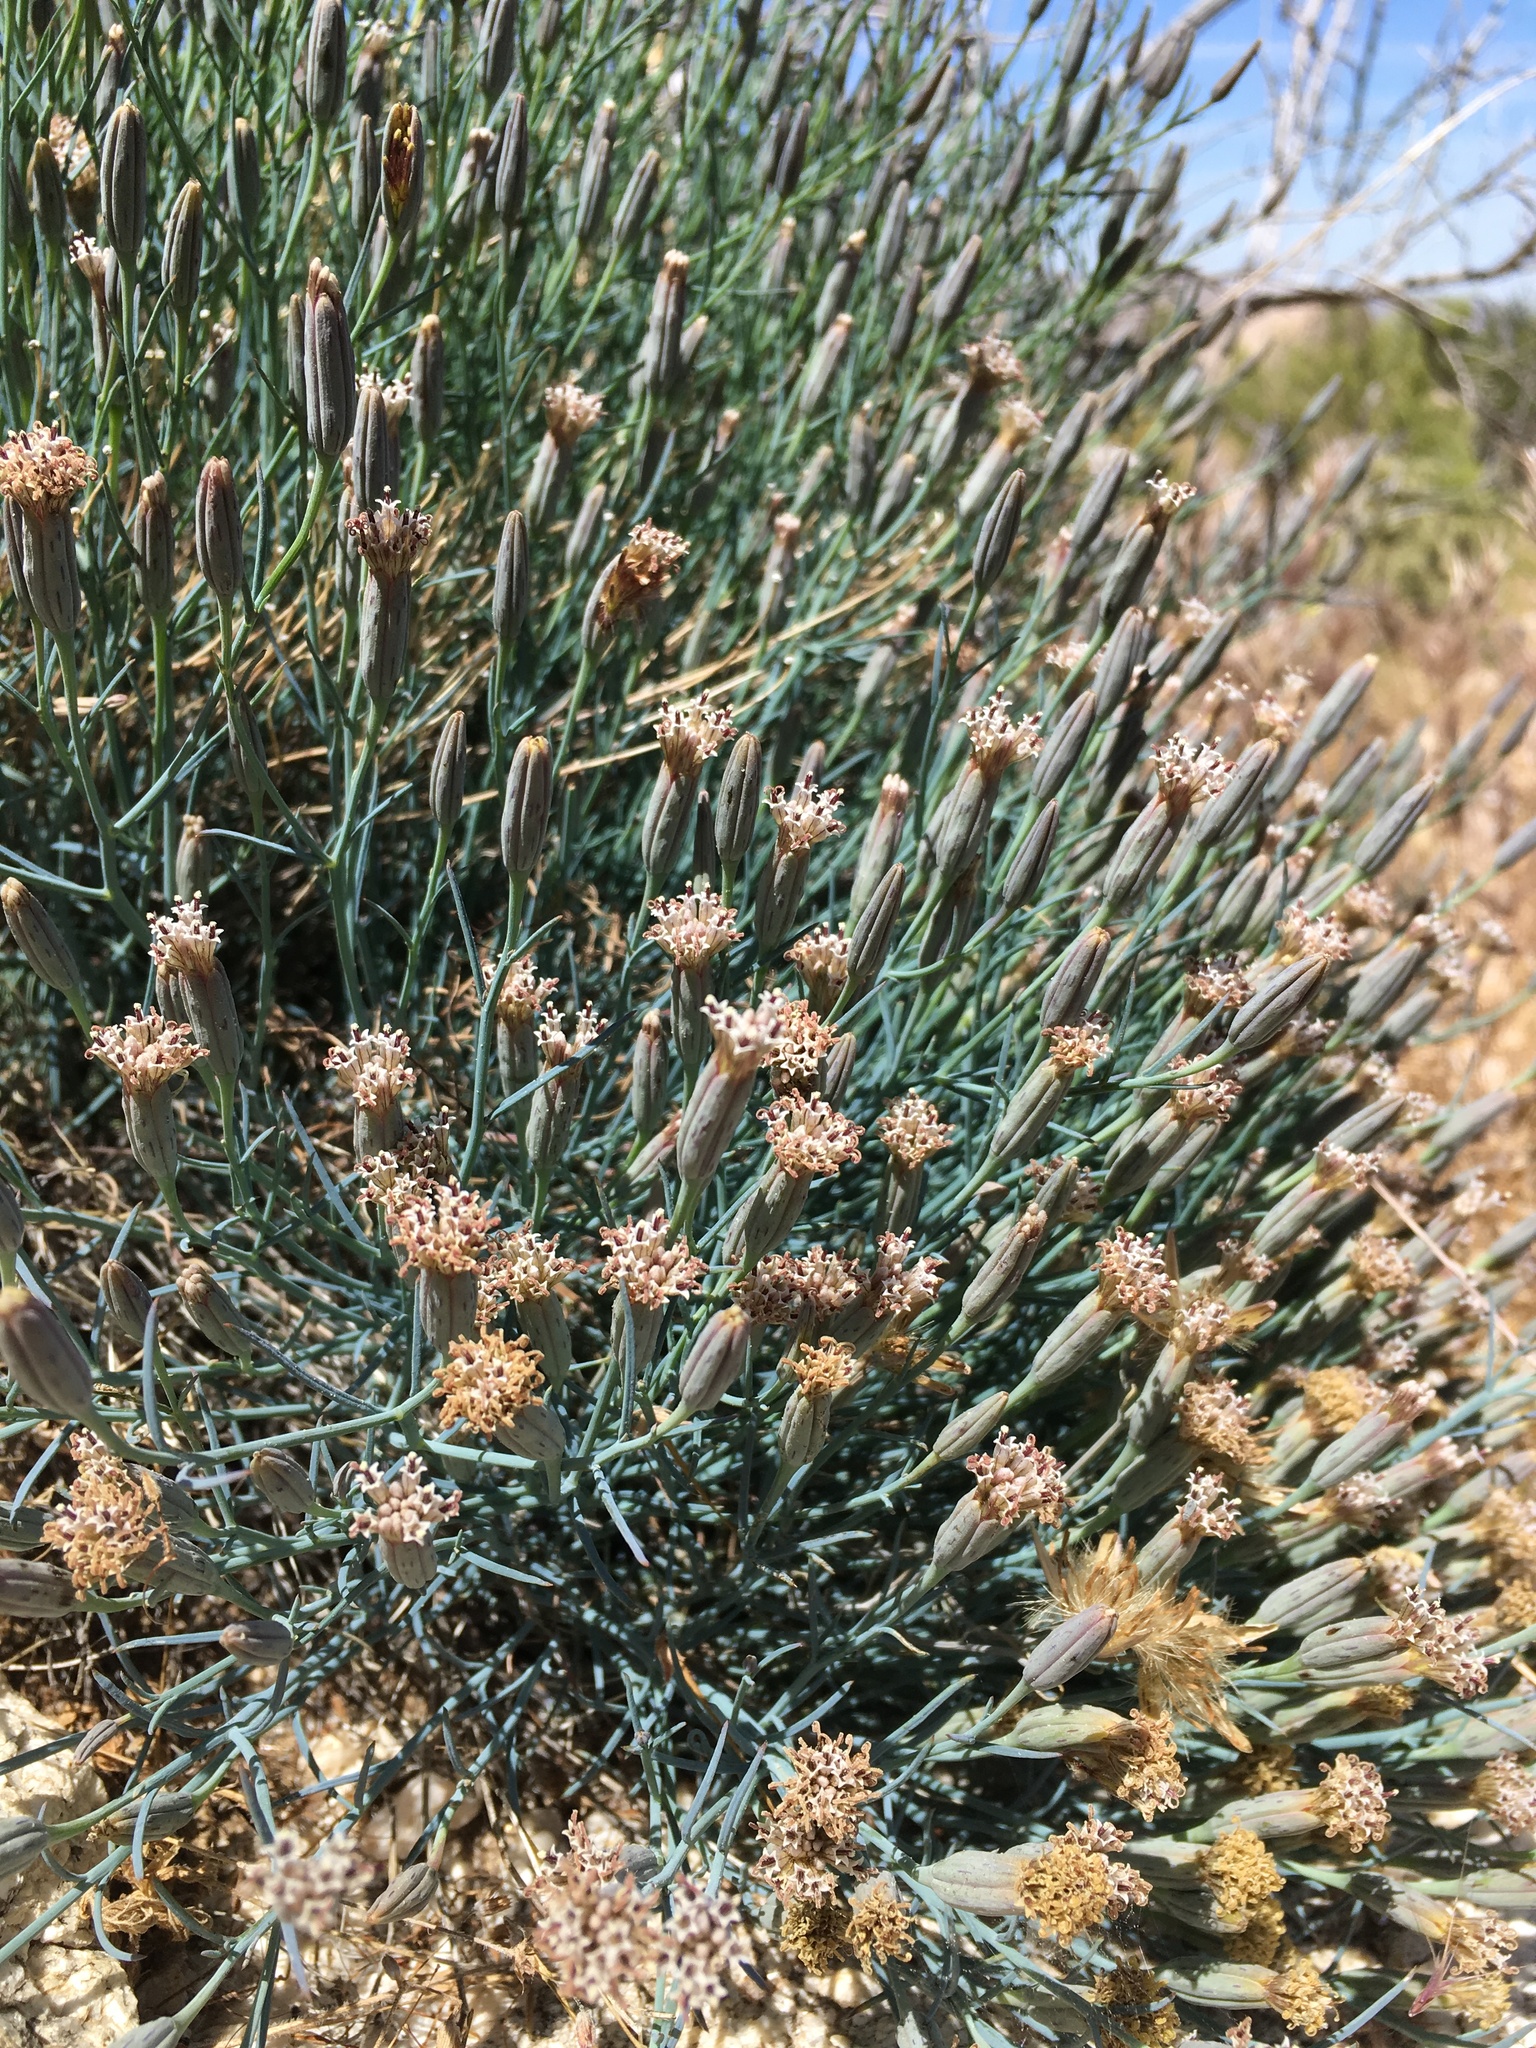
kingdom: Plantae
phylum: Tracheophyta
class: Magnoliopsida
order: Asterales
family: Asteraceae
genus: Porophyllum
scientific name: Porophyllum gracile
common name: Odora
